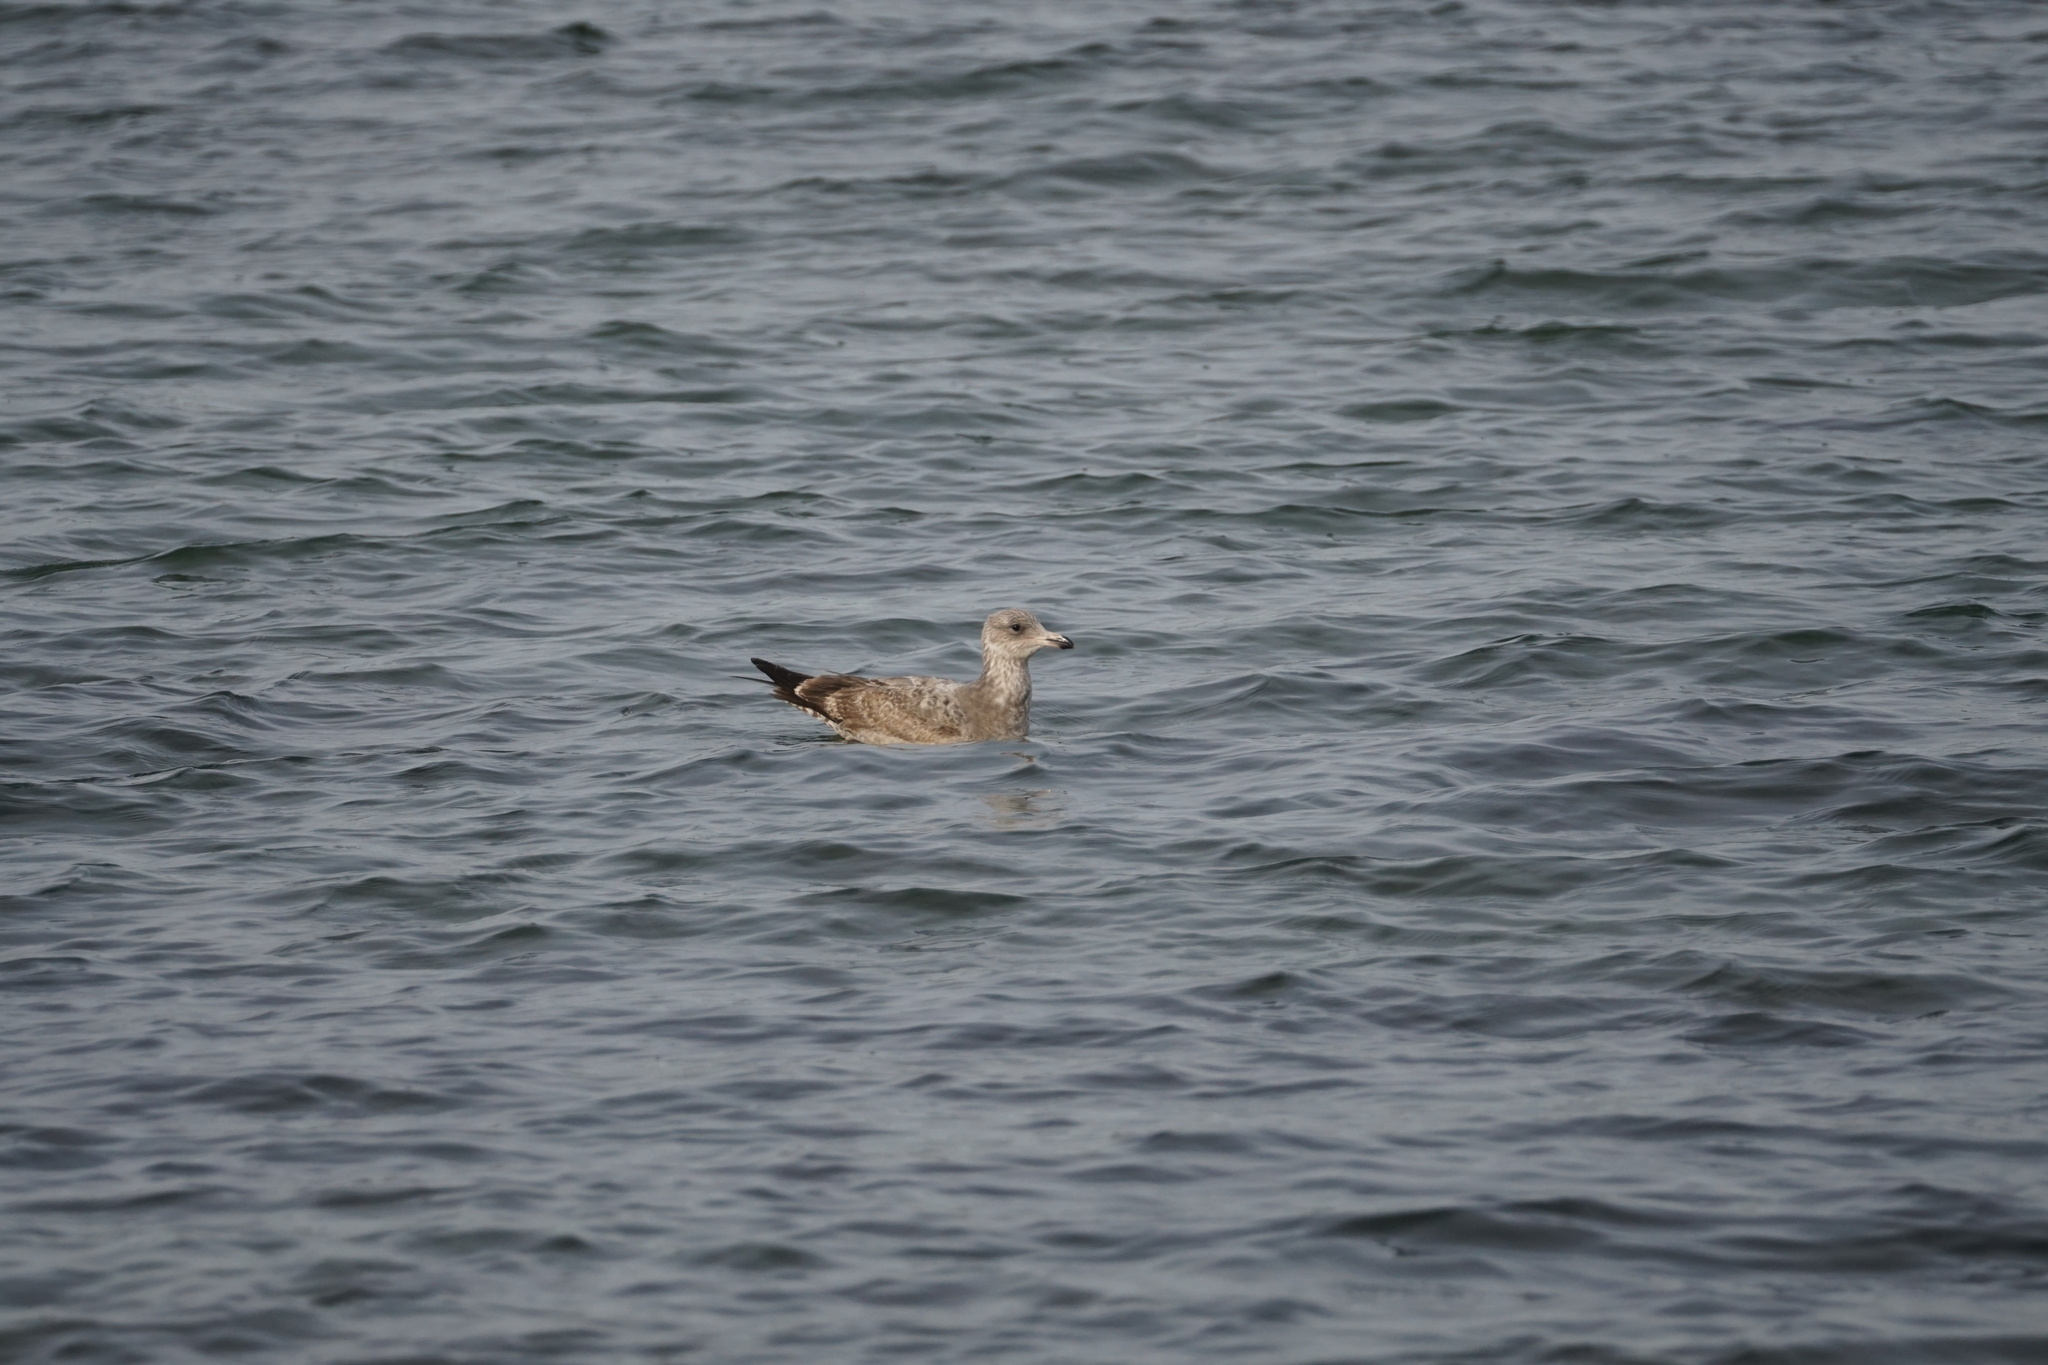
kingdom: Animalia
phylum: Chordata
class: Aves
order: Charadriiformes
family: Laridae
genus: Larus
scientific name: Larus argentatus
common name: Herring gull
